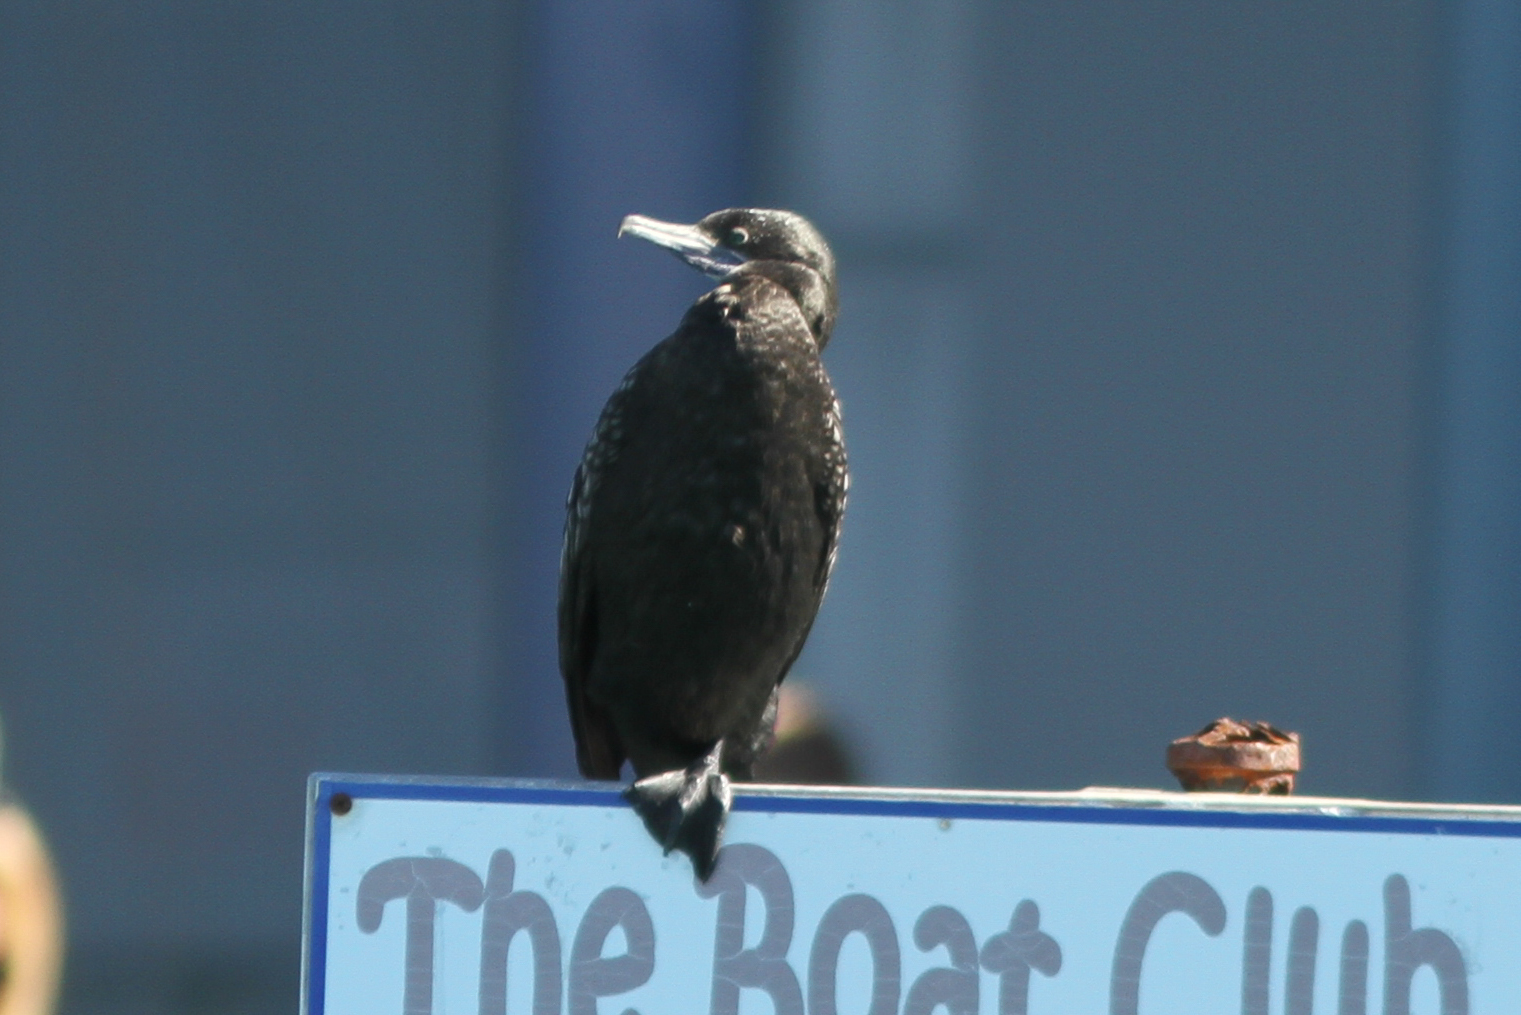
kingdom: Animalia
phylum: Chordata
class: Aves
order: Suliformes
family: Phalacrocoracidae
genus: Phalacrocorax
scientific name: Phalacrocorax sulcirostris
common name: Little black cormorant
